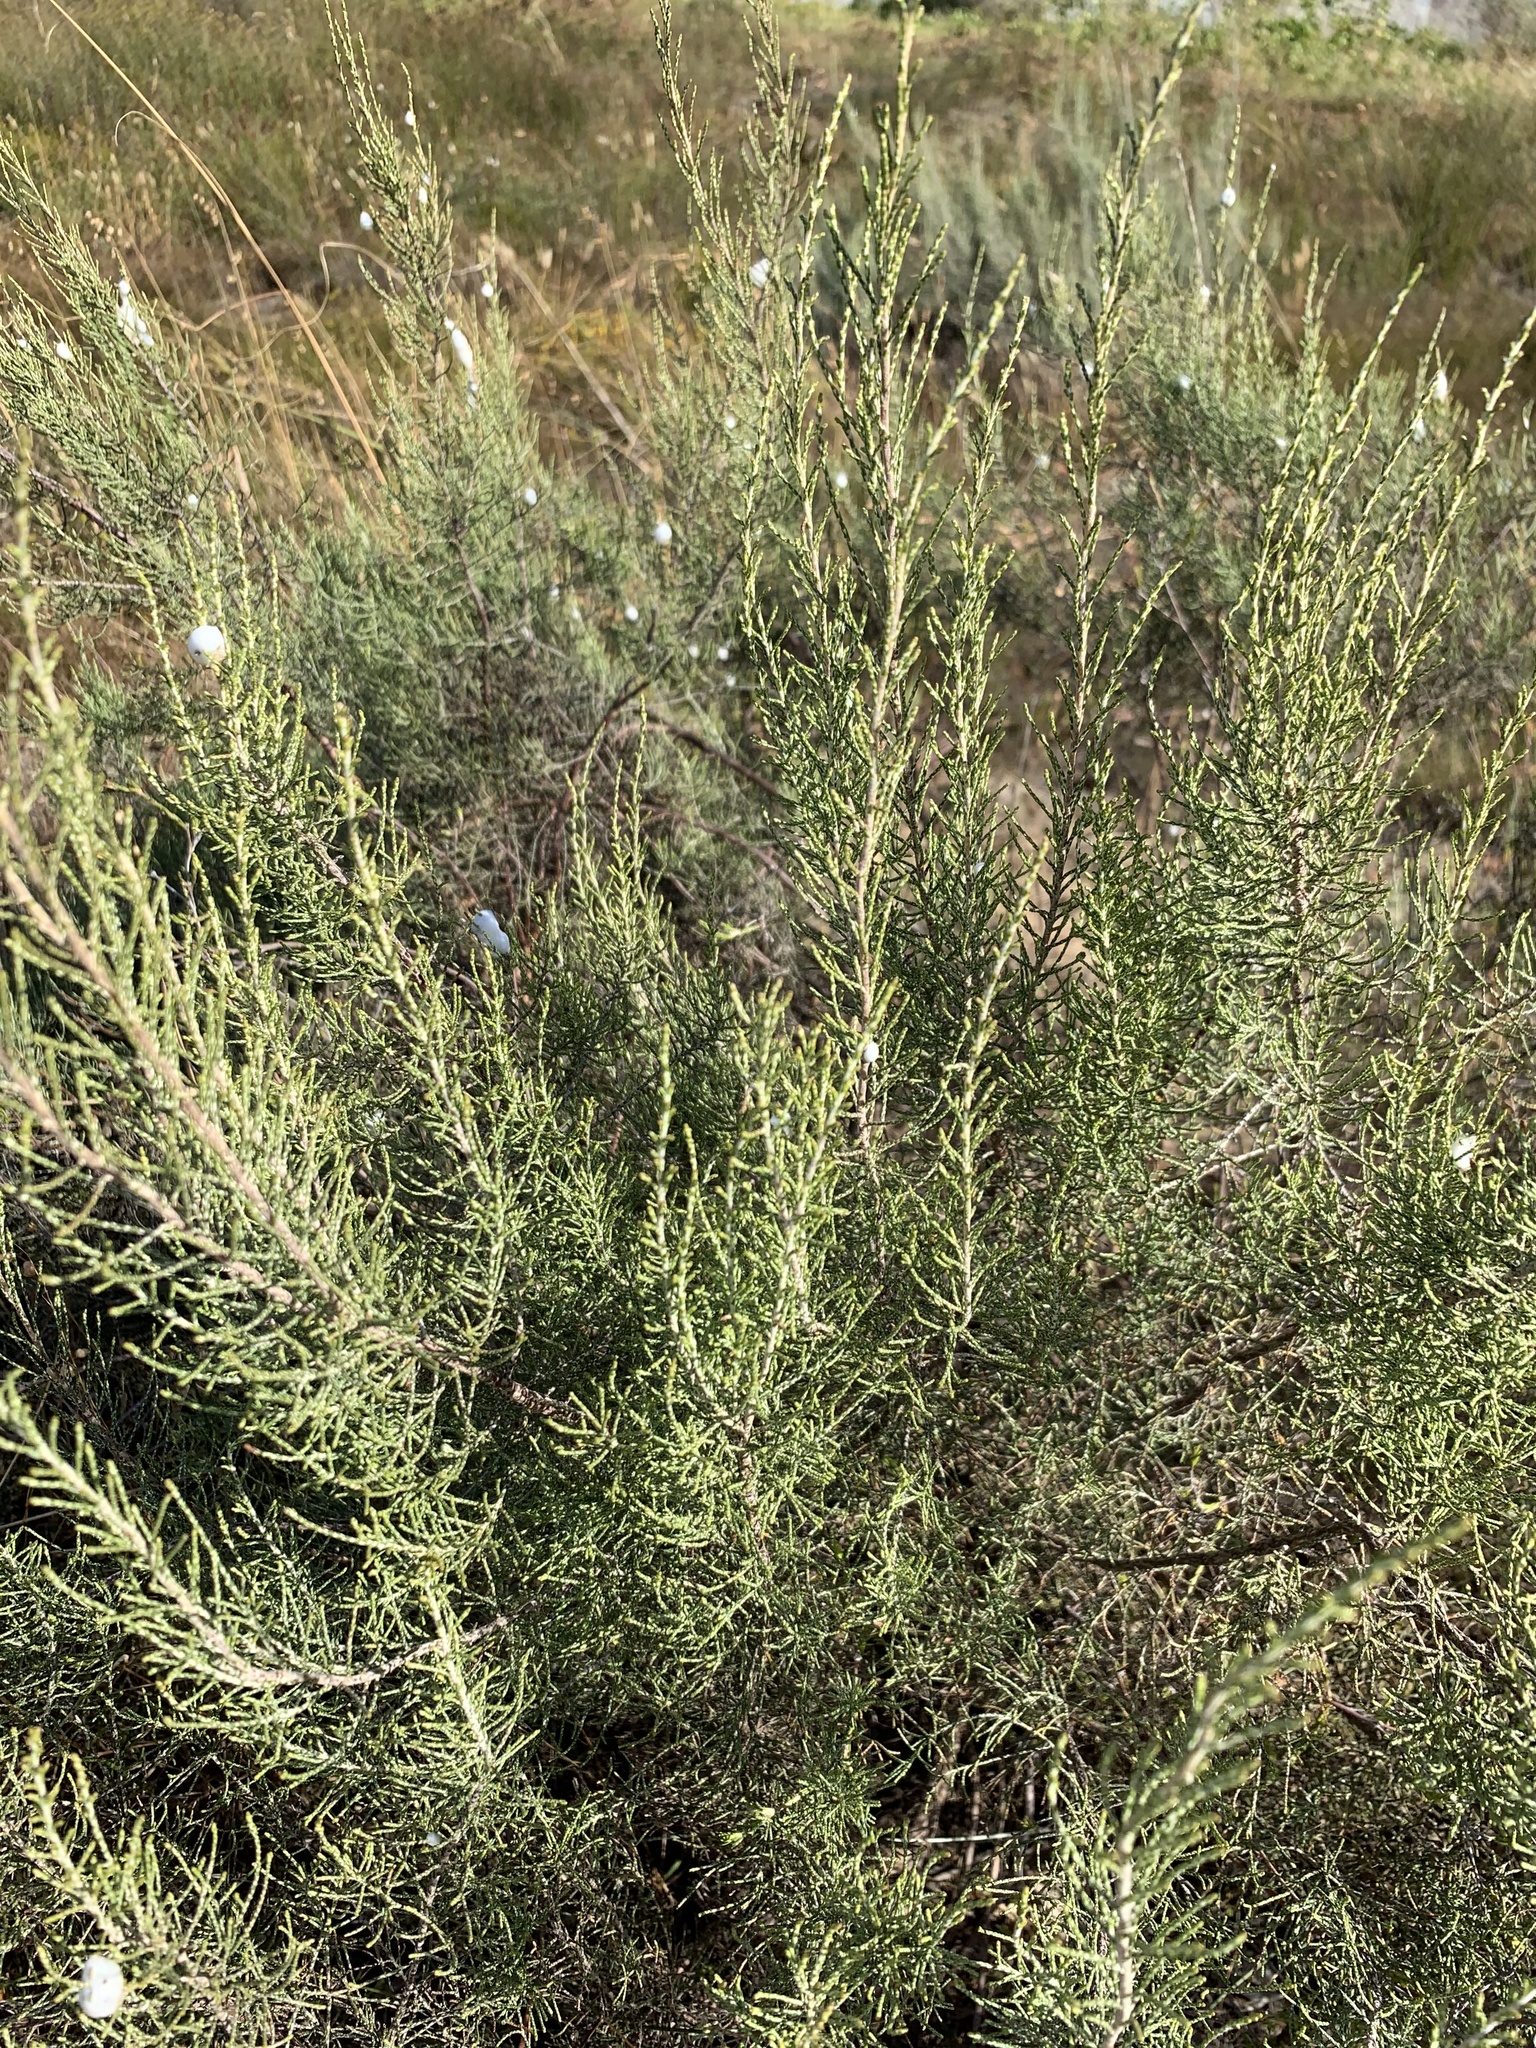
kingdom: Plantae
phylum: Tracheophyta
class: Magnoliopsida
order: Asterales
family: Asteraceae
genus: Dicerothamnus
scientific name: Dicerothamnus rhinocerotis
